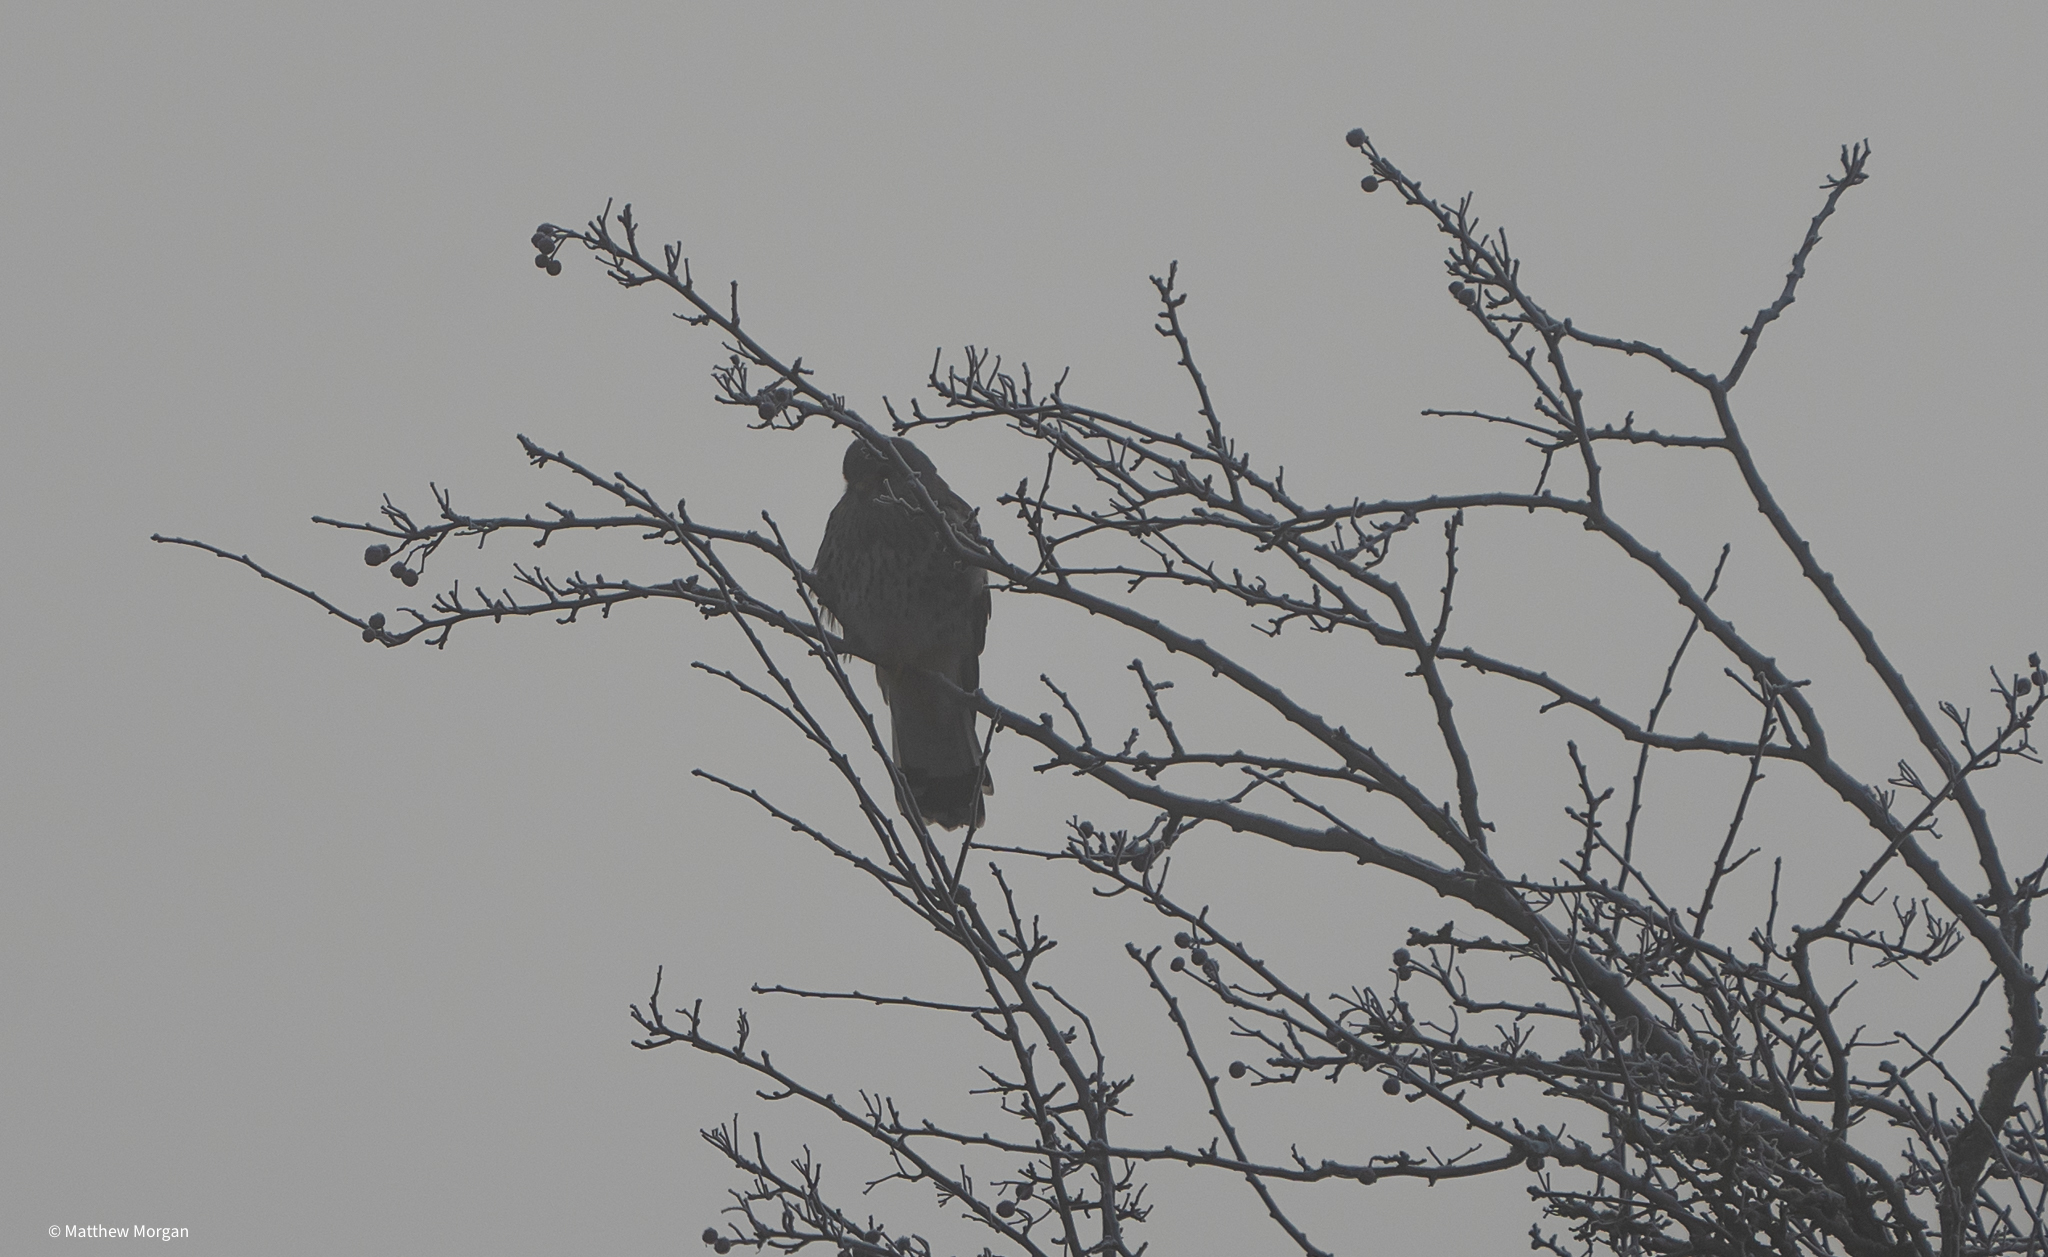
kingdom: Animalia
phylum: Chordata
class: Aves
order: Falconiformes
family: Falconidae
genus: Falco
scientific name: Falco tinnunculus
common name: Common kestrel
